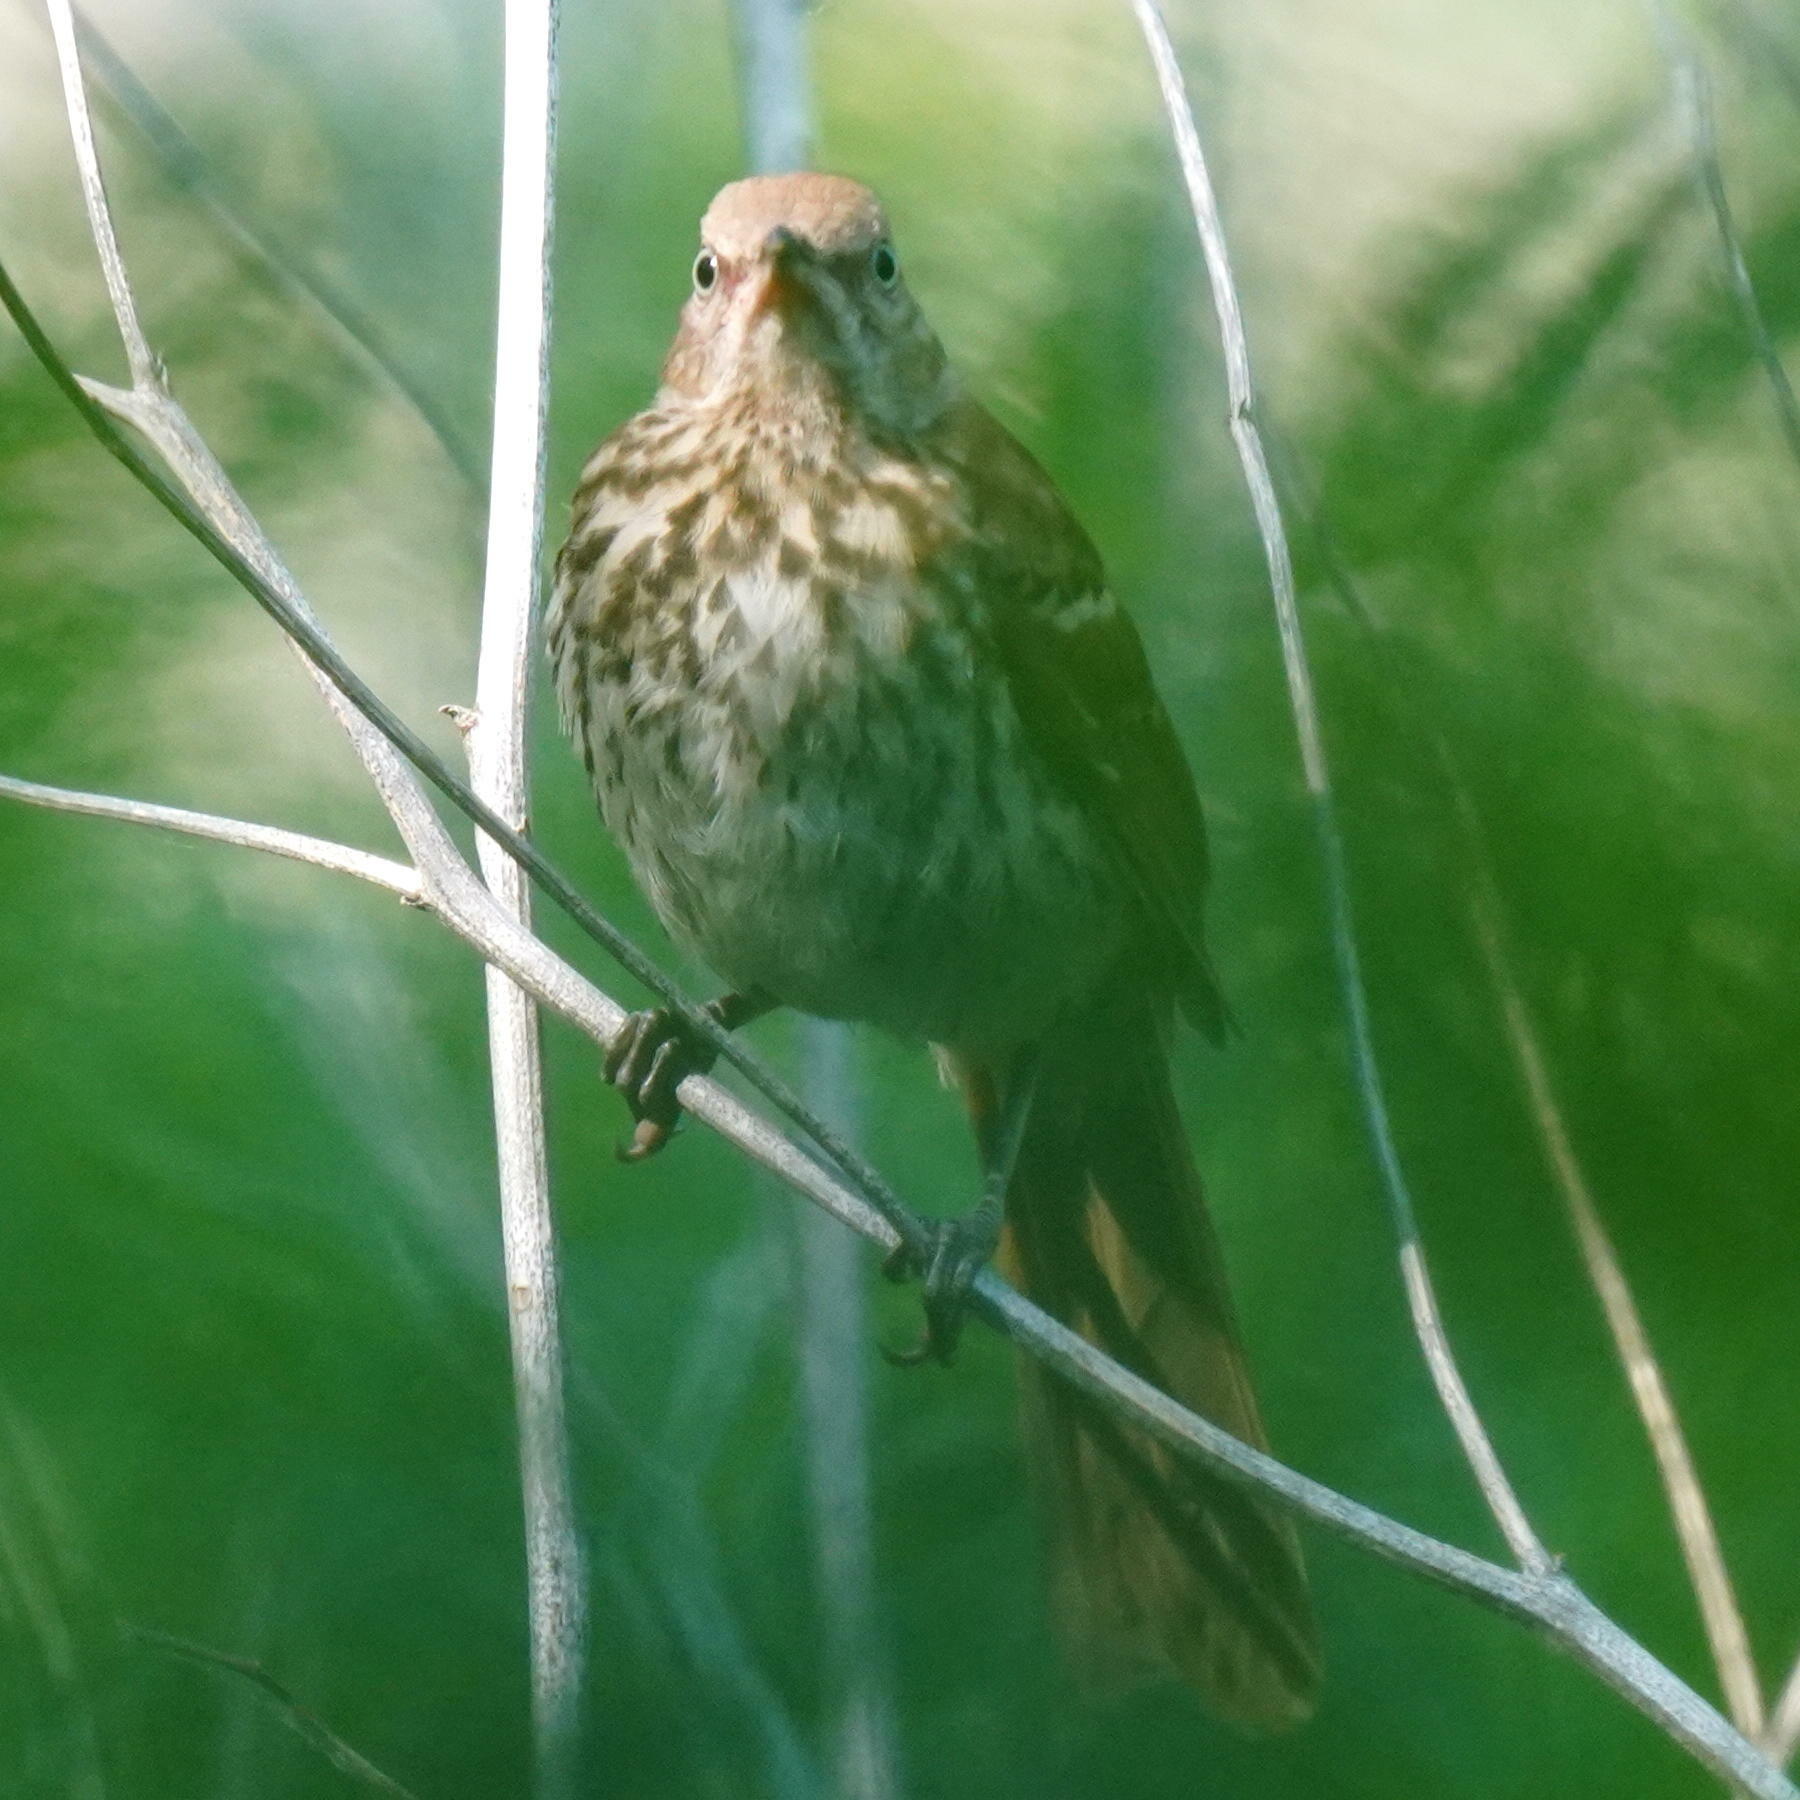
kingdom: Animalia
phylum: Chordata
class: Aves
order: Passeriformes
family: Mimidae
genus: Toxostoma
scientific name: Toxostoma rufum
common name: Brown thrasher
